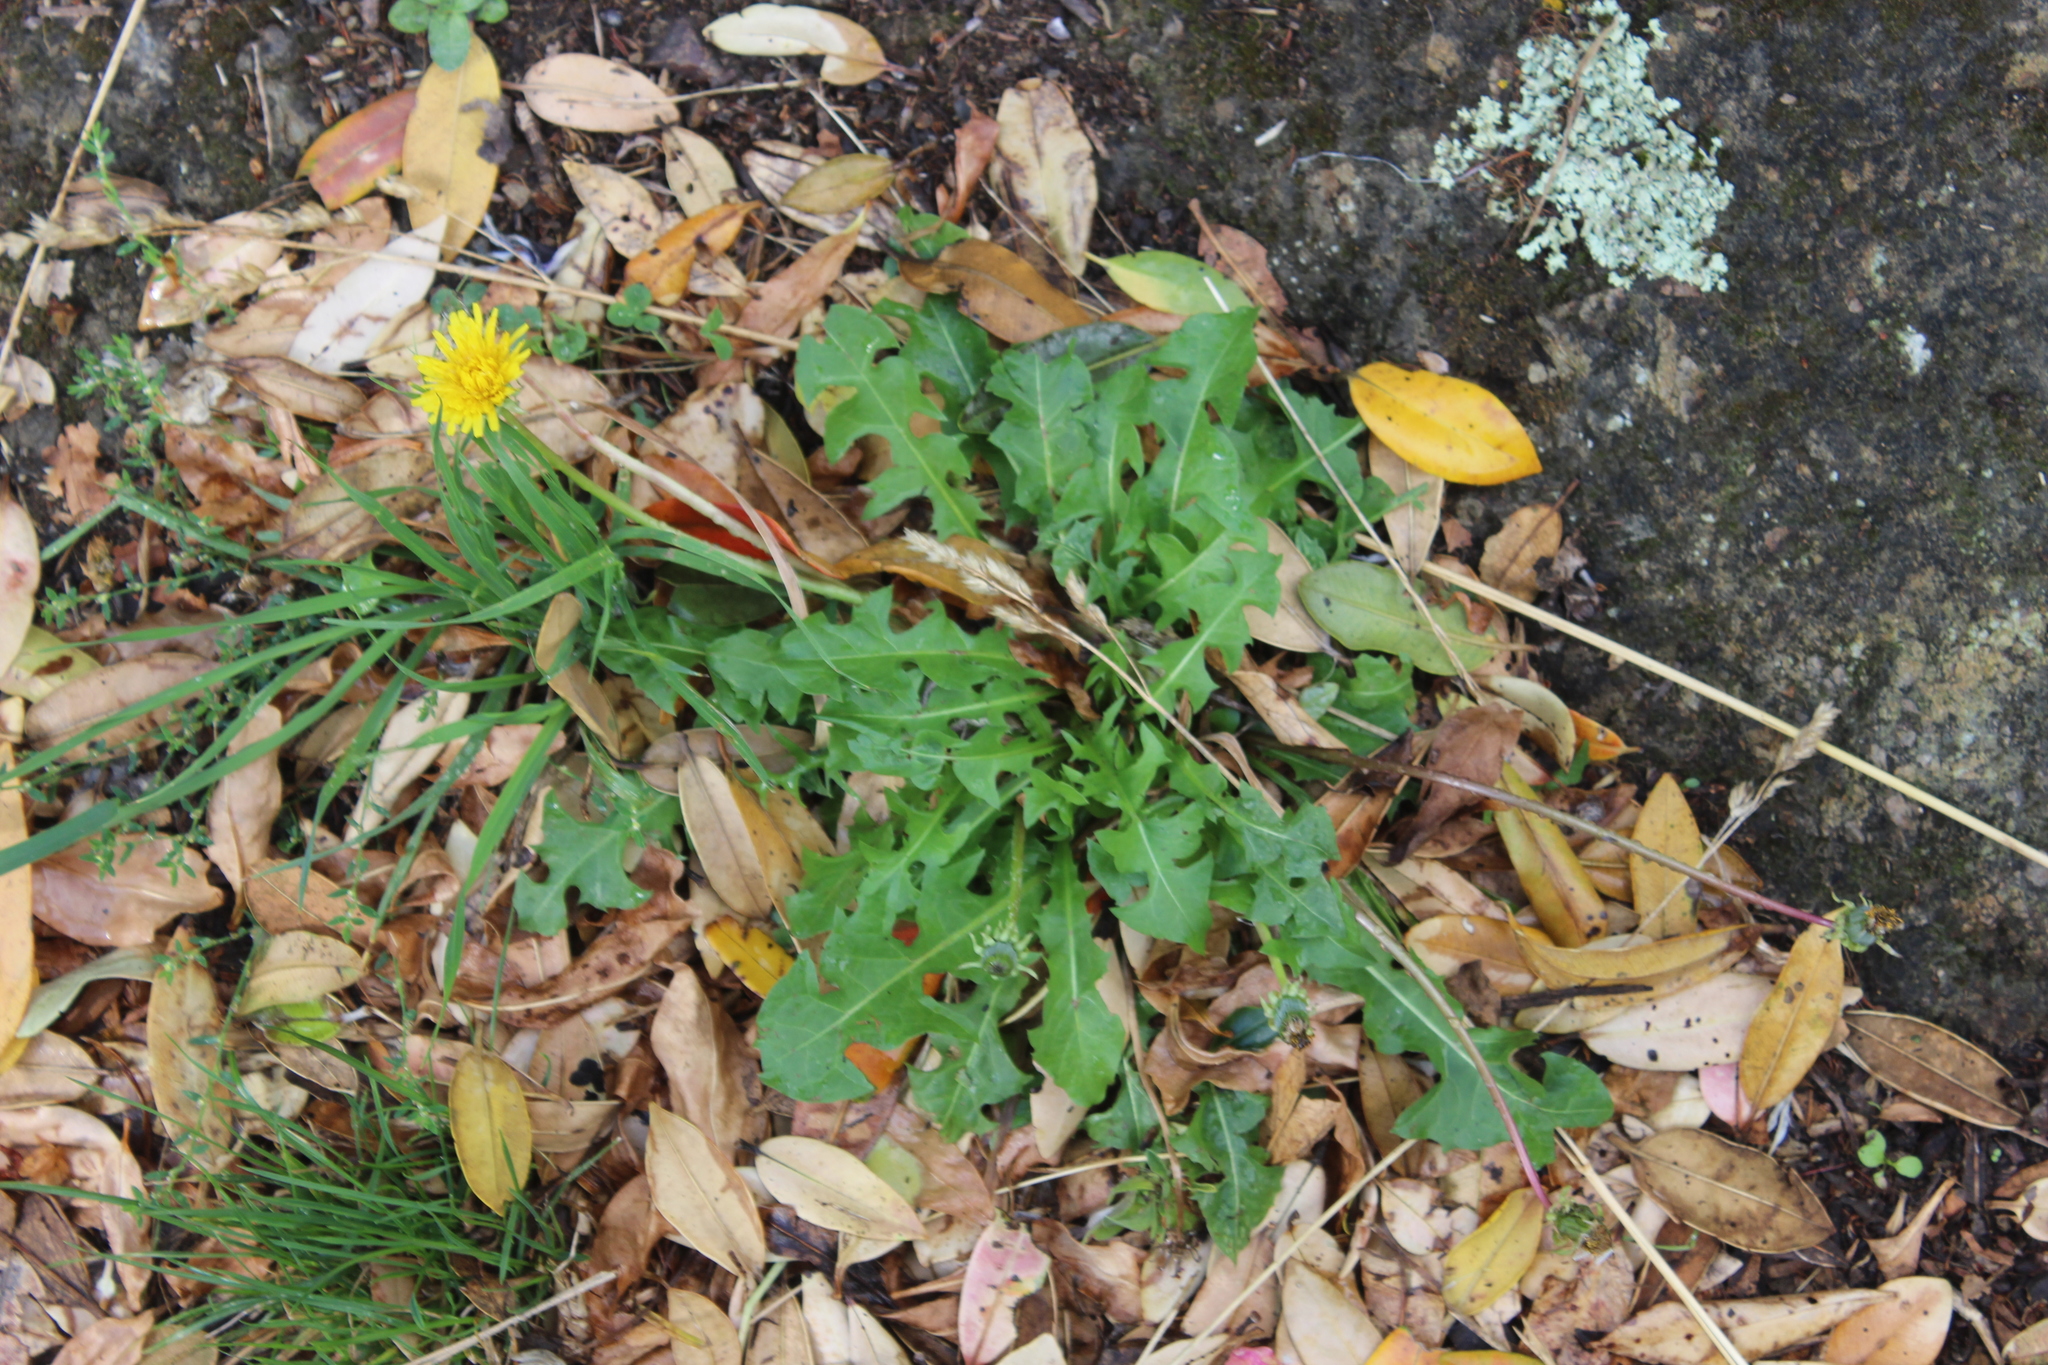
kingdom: Plantae
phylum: Tracheophyta
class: Magnoliopsida
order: Asterales
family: Asteraceae
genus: Taraxacum
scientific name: Taraxacum officinale
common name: Common dandelion
